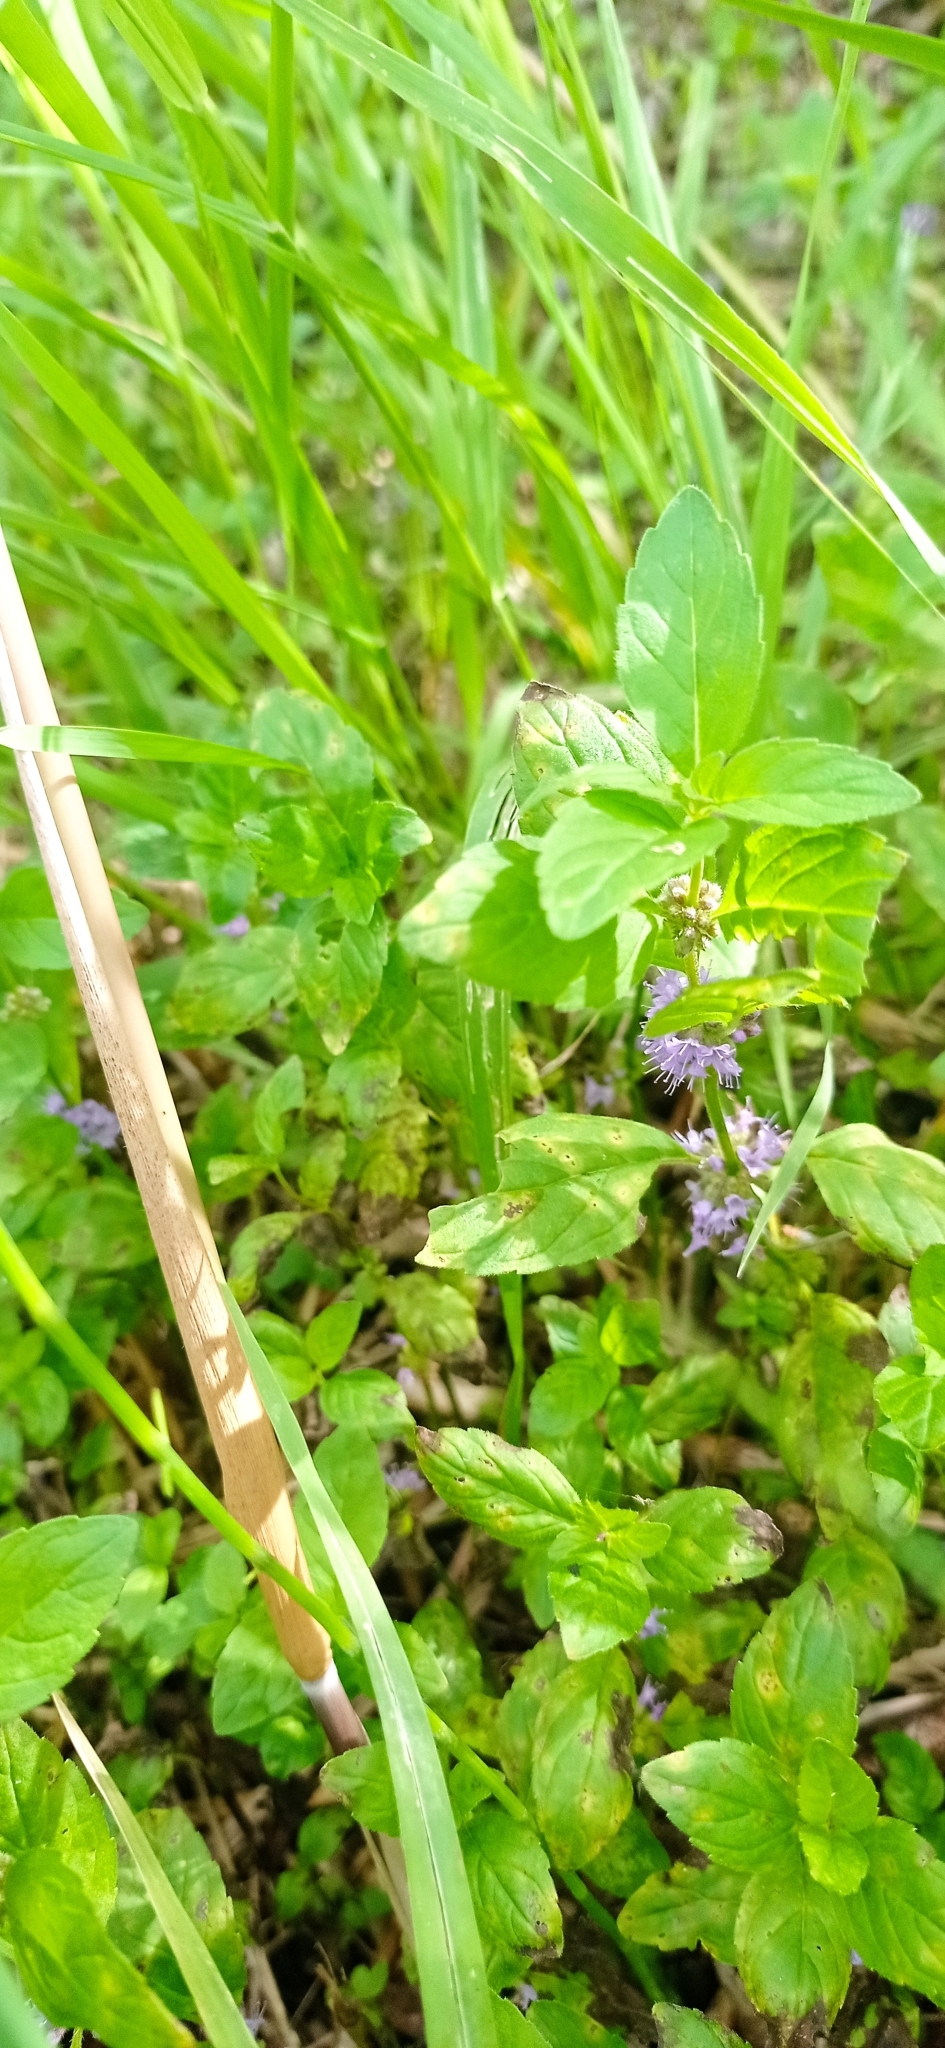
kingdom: Plantae
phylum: Tracheophyta
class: Magnoliopsida
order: Lamiales
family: Lamiaceae
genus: Mentha
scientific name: Mentha arvensis
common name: Corn mint
